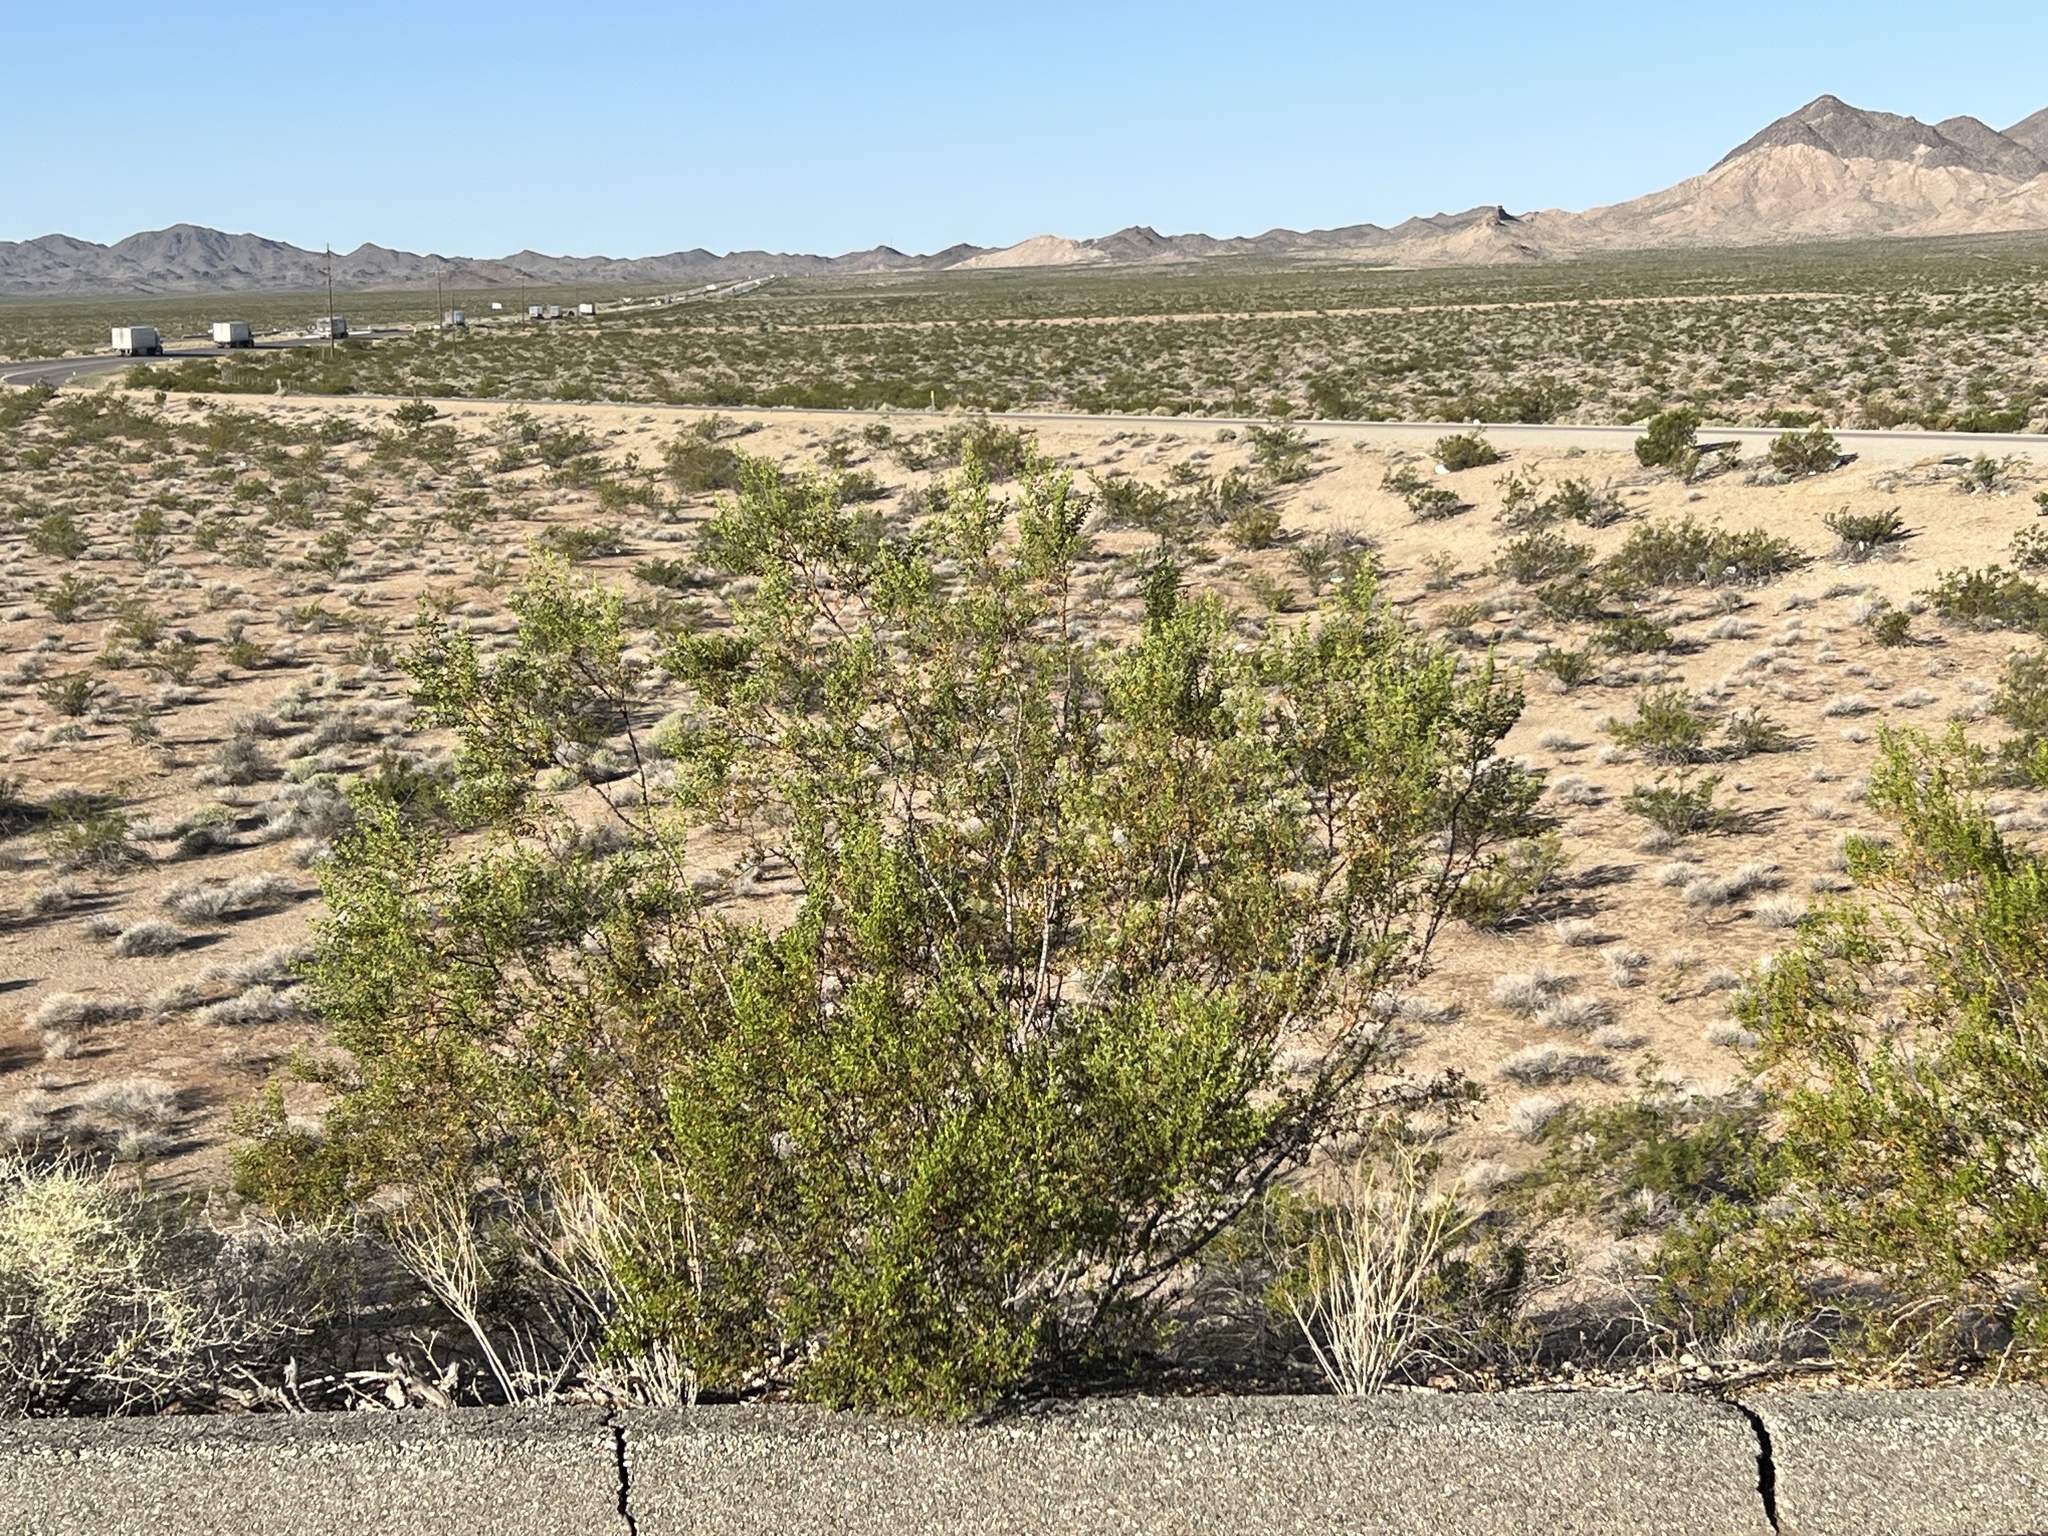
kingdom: Plantae
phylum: Tracheophyta
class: Magnoliopsida
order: Zygophyllales
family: Zygophyllaceae
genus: Larrea
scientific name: Larrea tridentata
